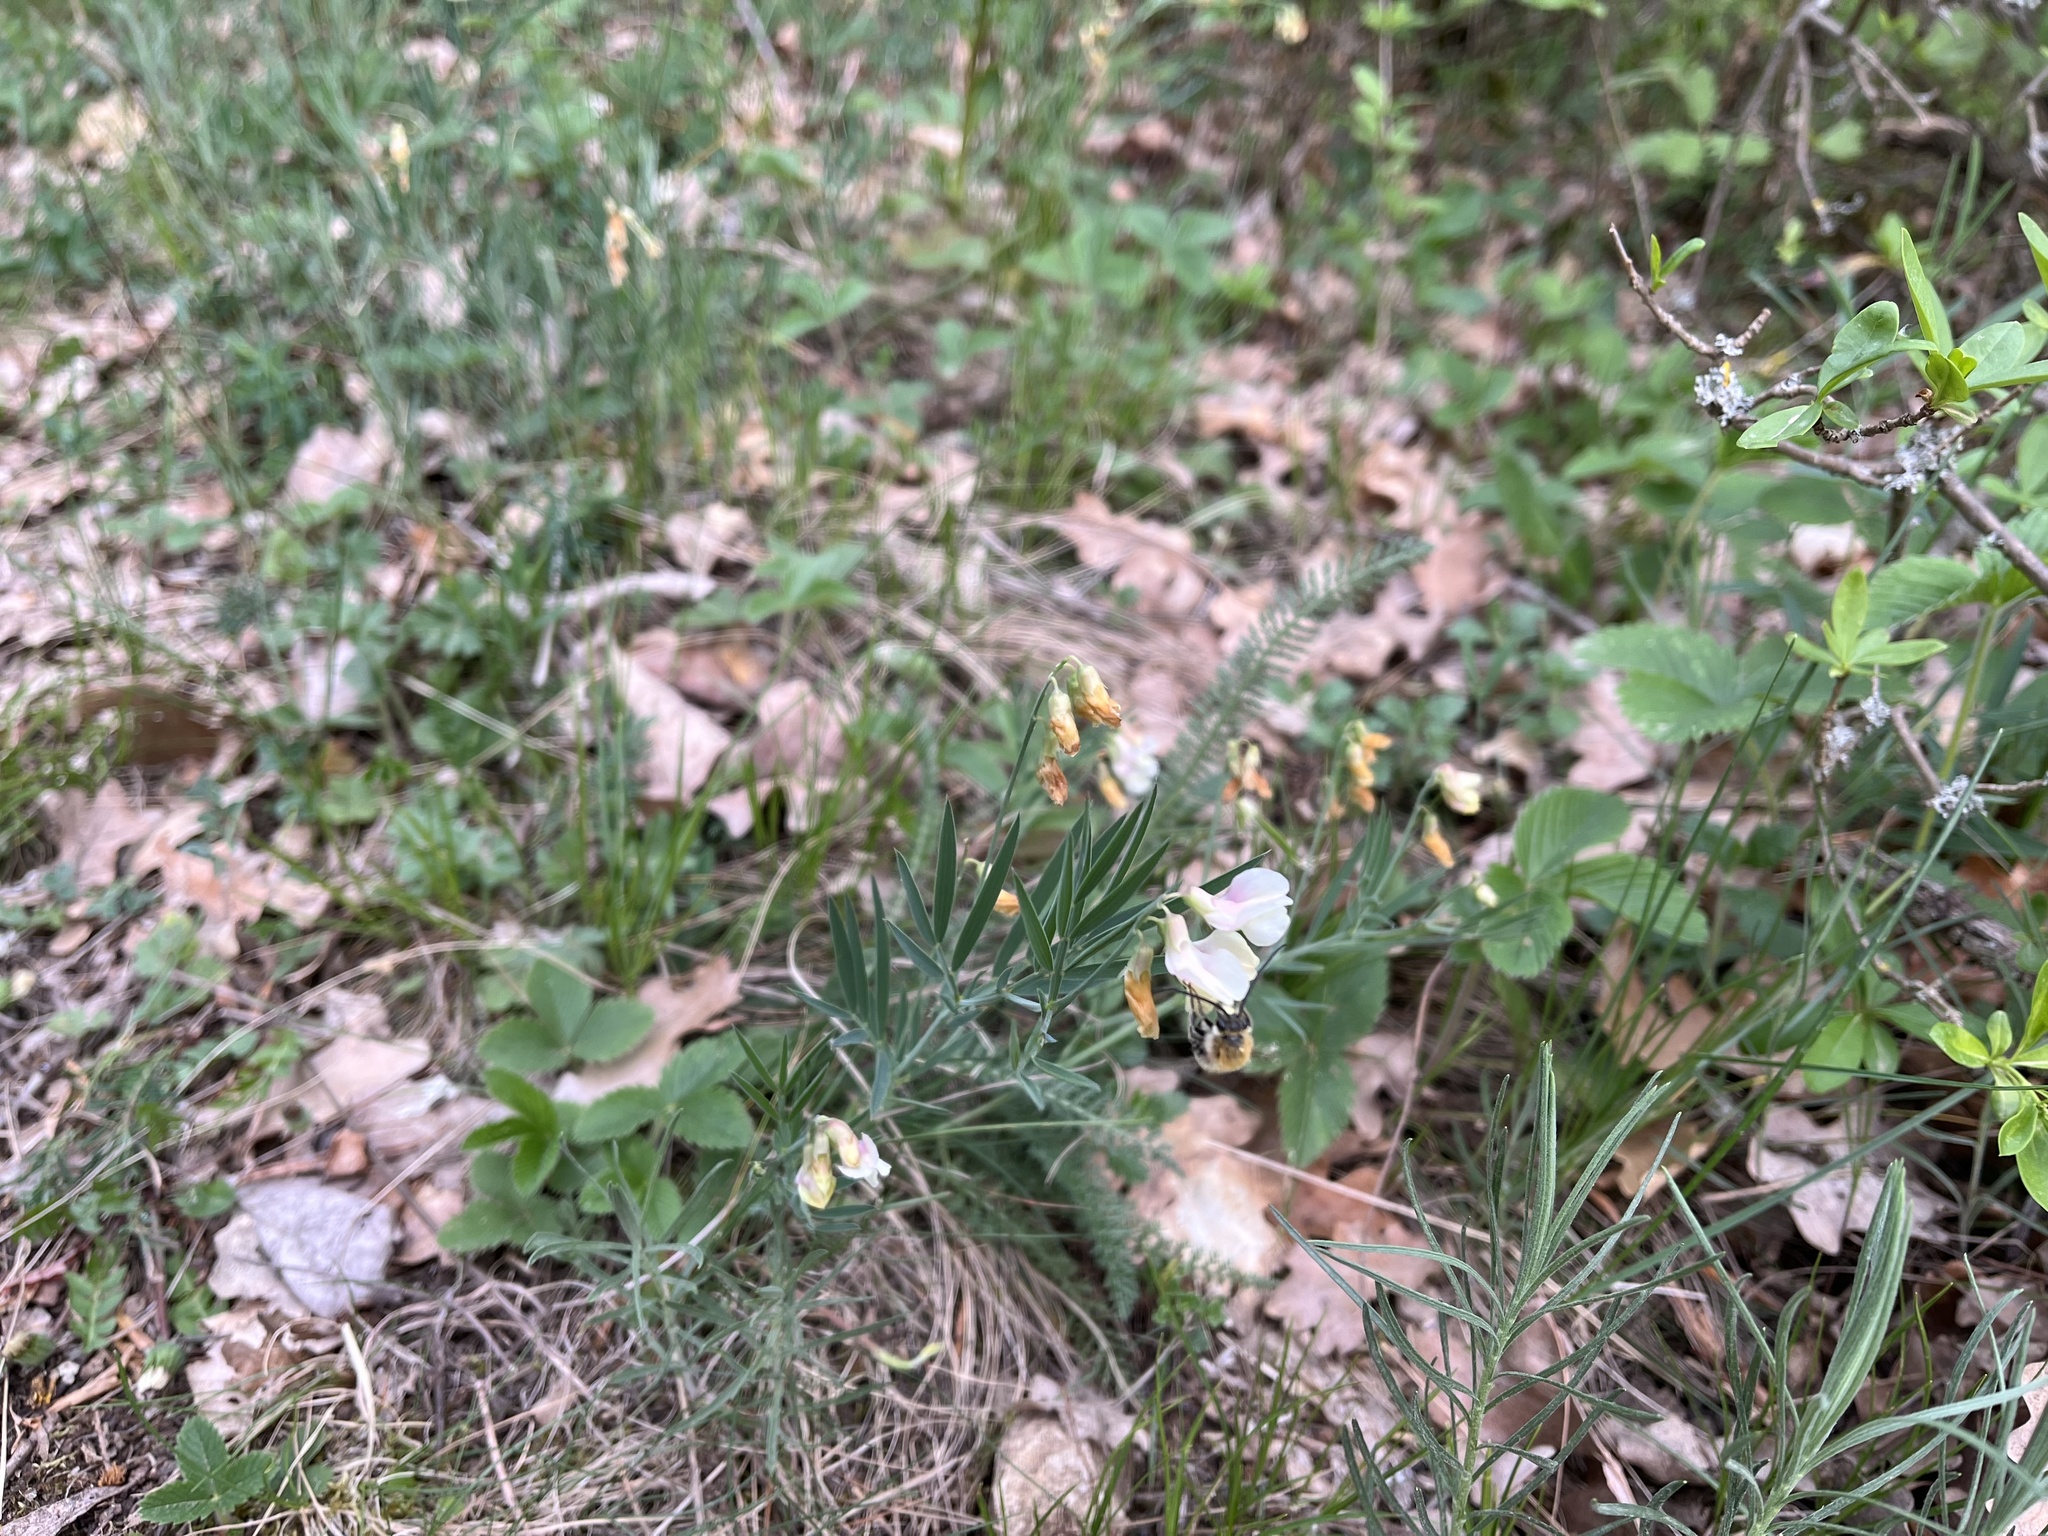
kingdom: Plantae
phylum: Tracheophyta
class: Magnoliopsida
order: Fabales
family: Fabaceae
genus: Lathyrus
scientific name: Lathyrus pannonicus
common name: Pea
